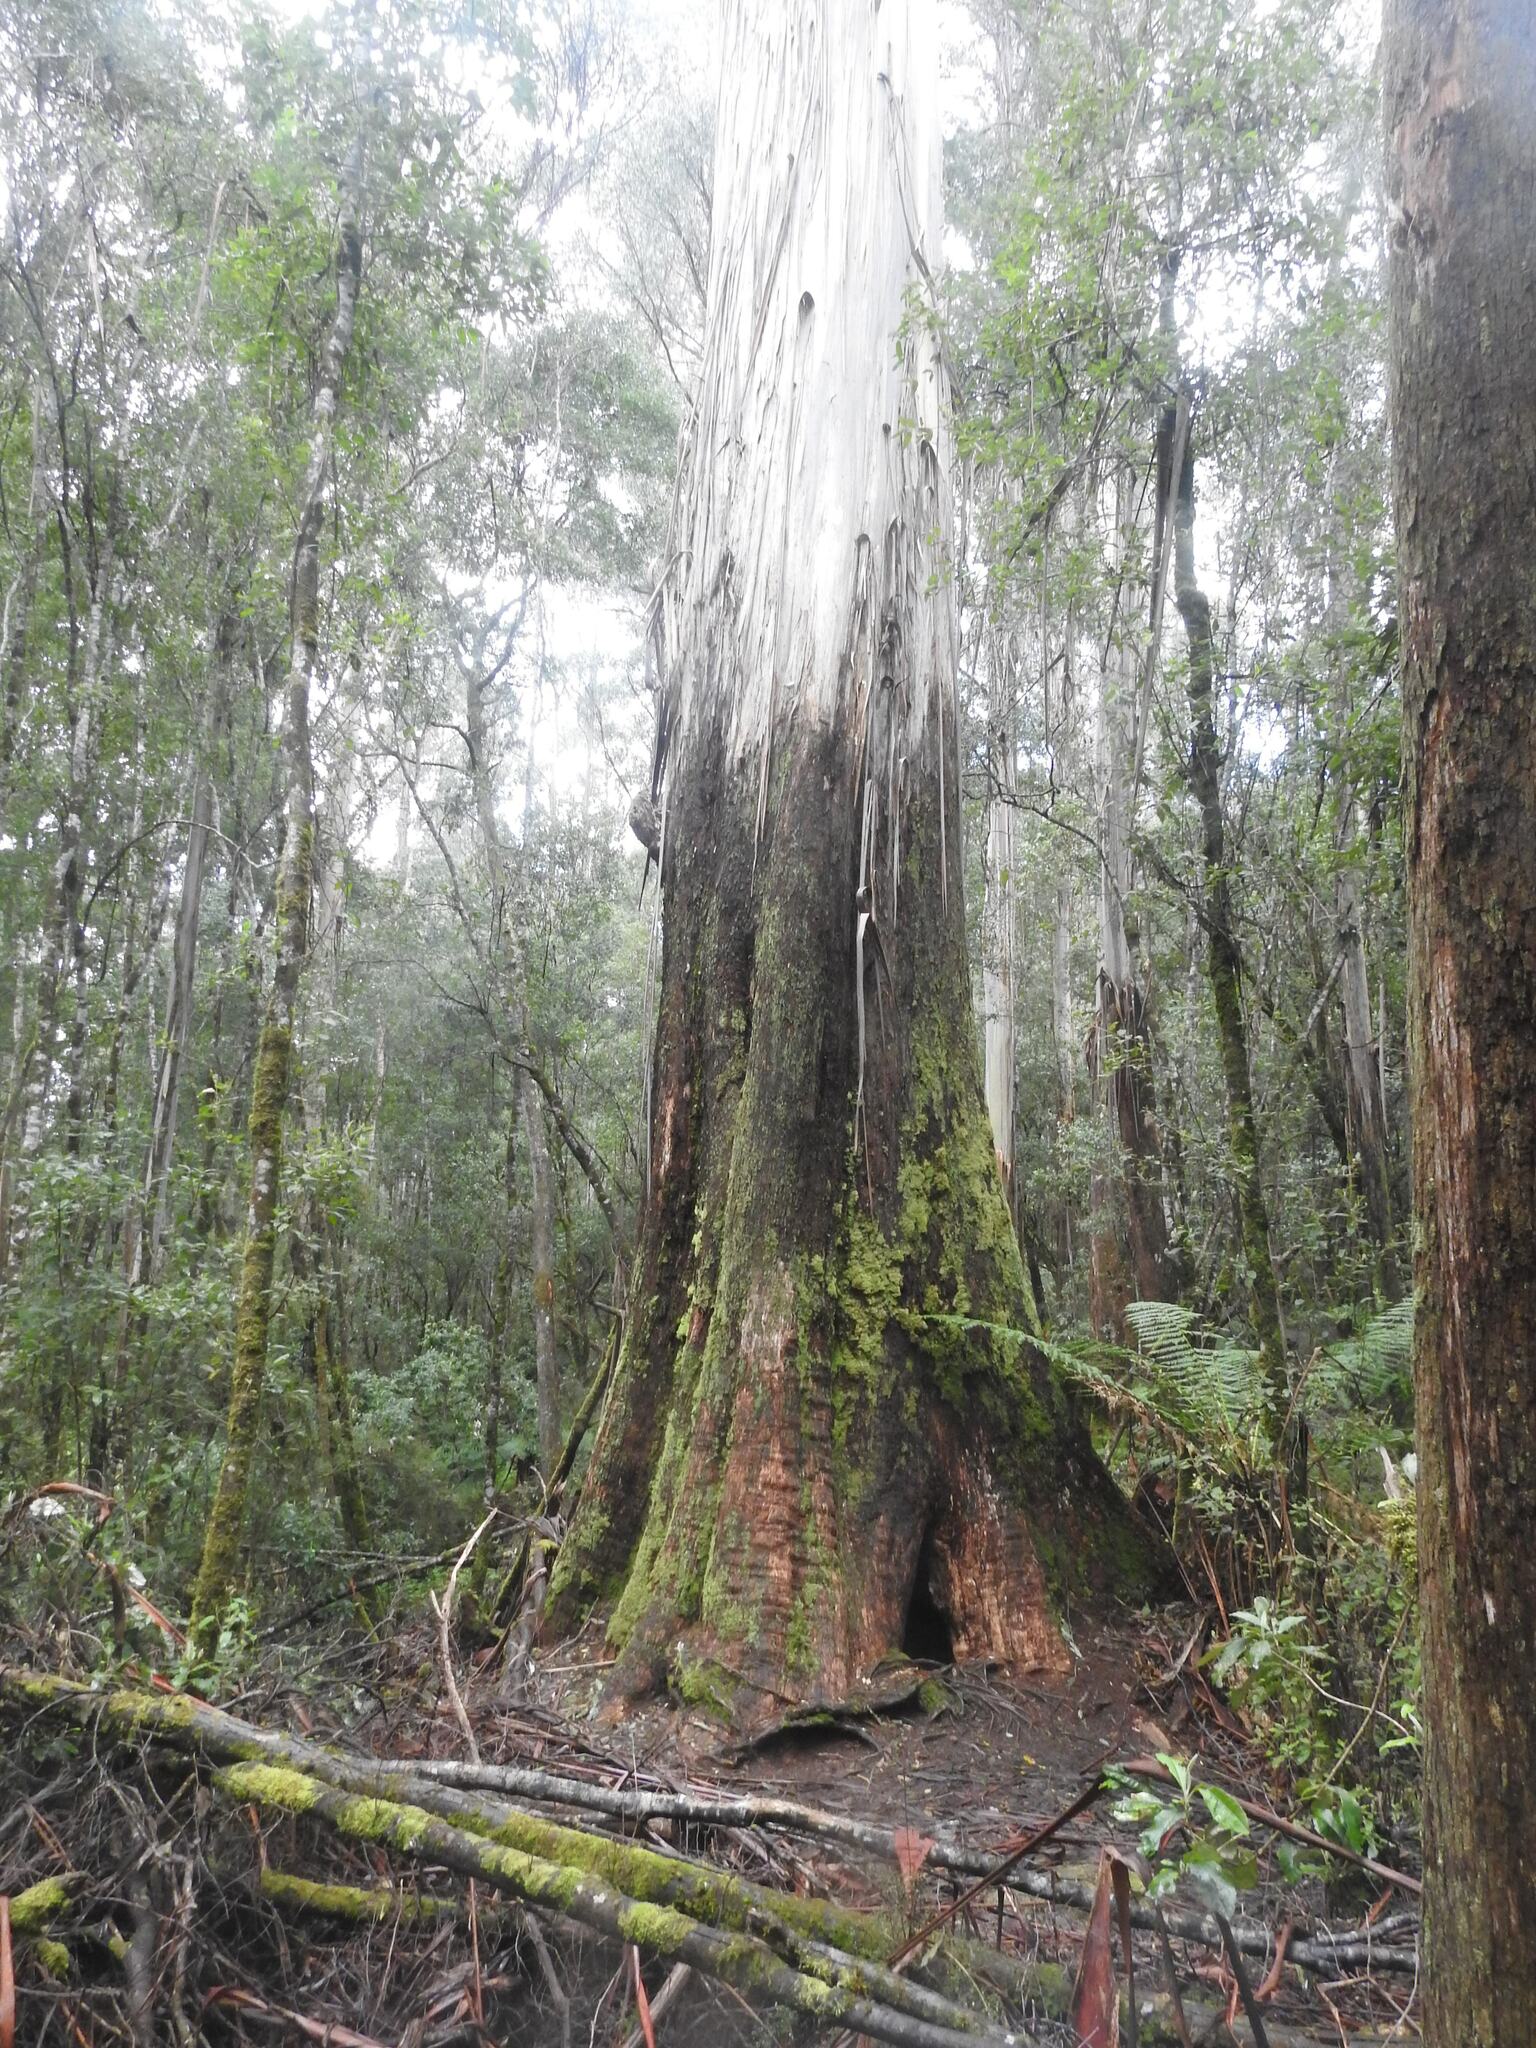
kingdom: Plantae
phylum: Tracheophyta
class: Magnoliopsida
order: Myrtales
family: Myrtaceae
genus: Eucalyptus
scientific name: Eucalyptus regnans
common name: Stringy gum
